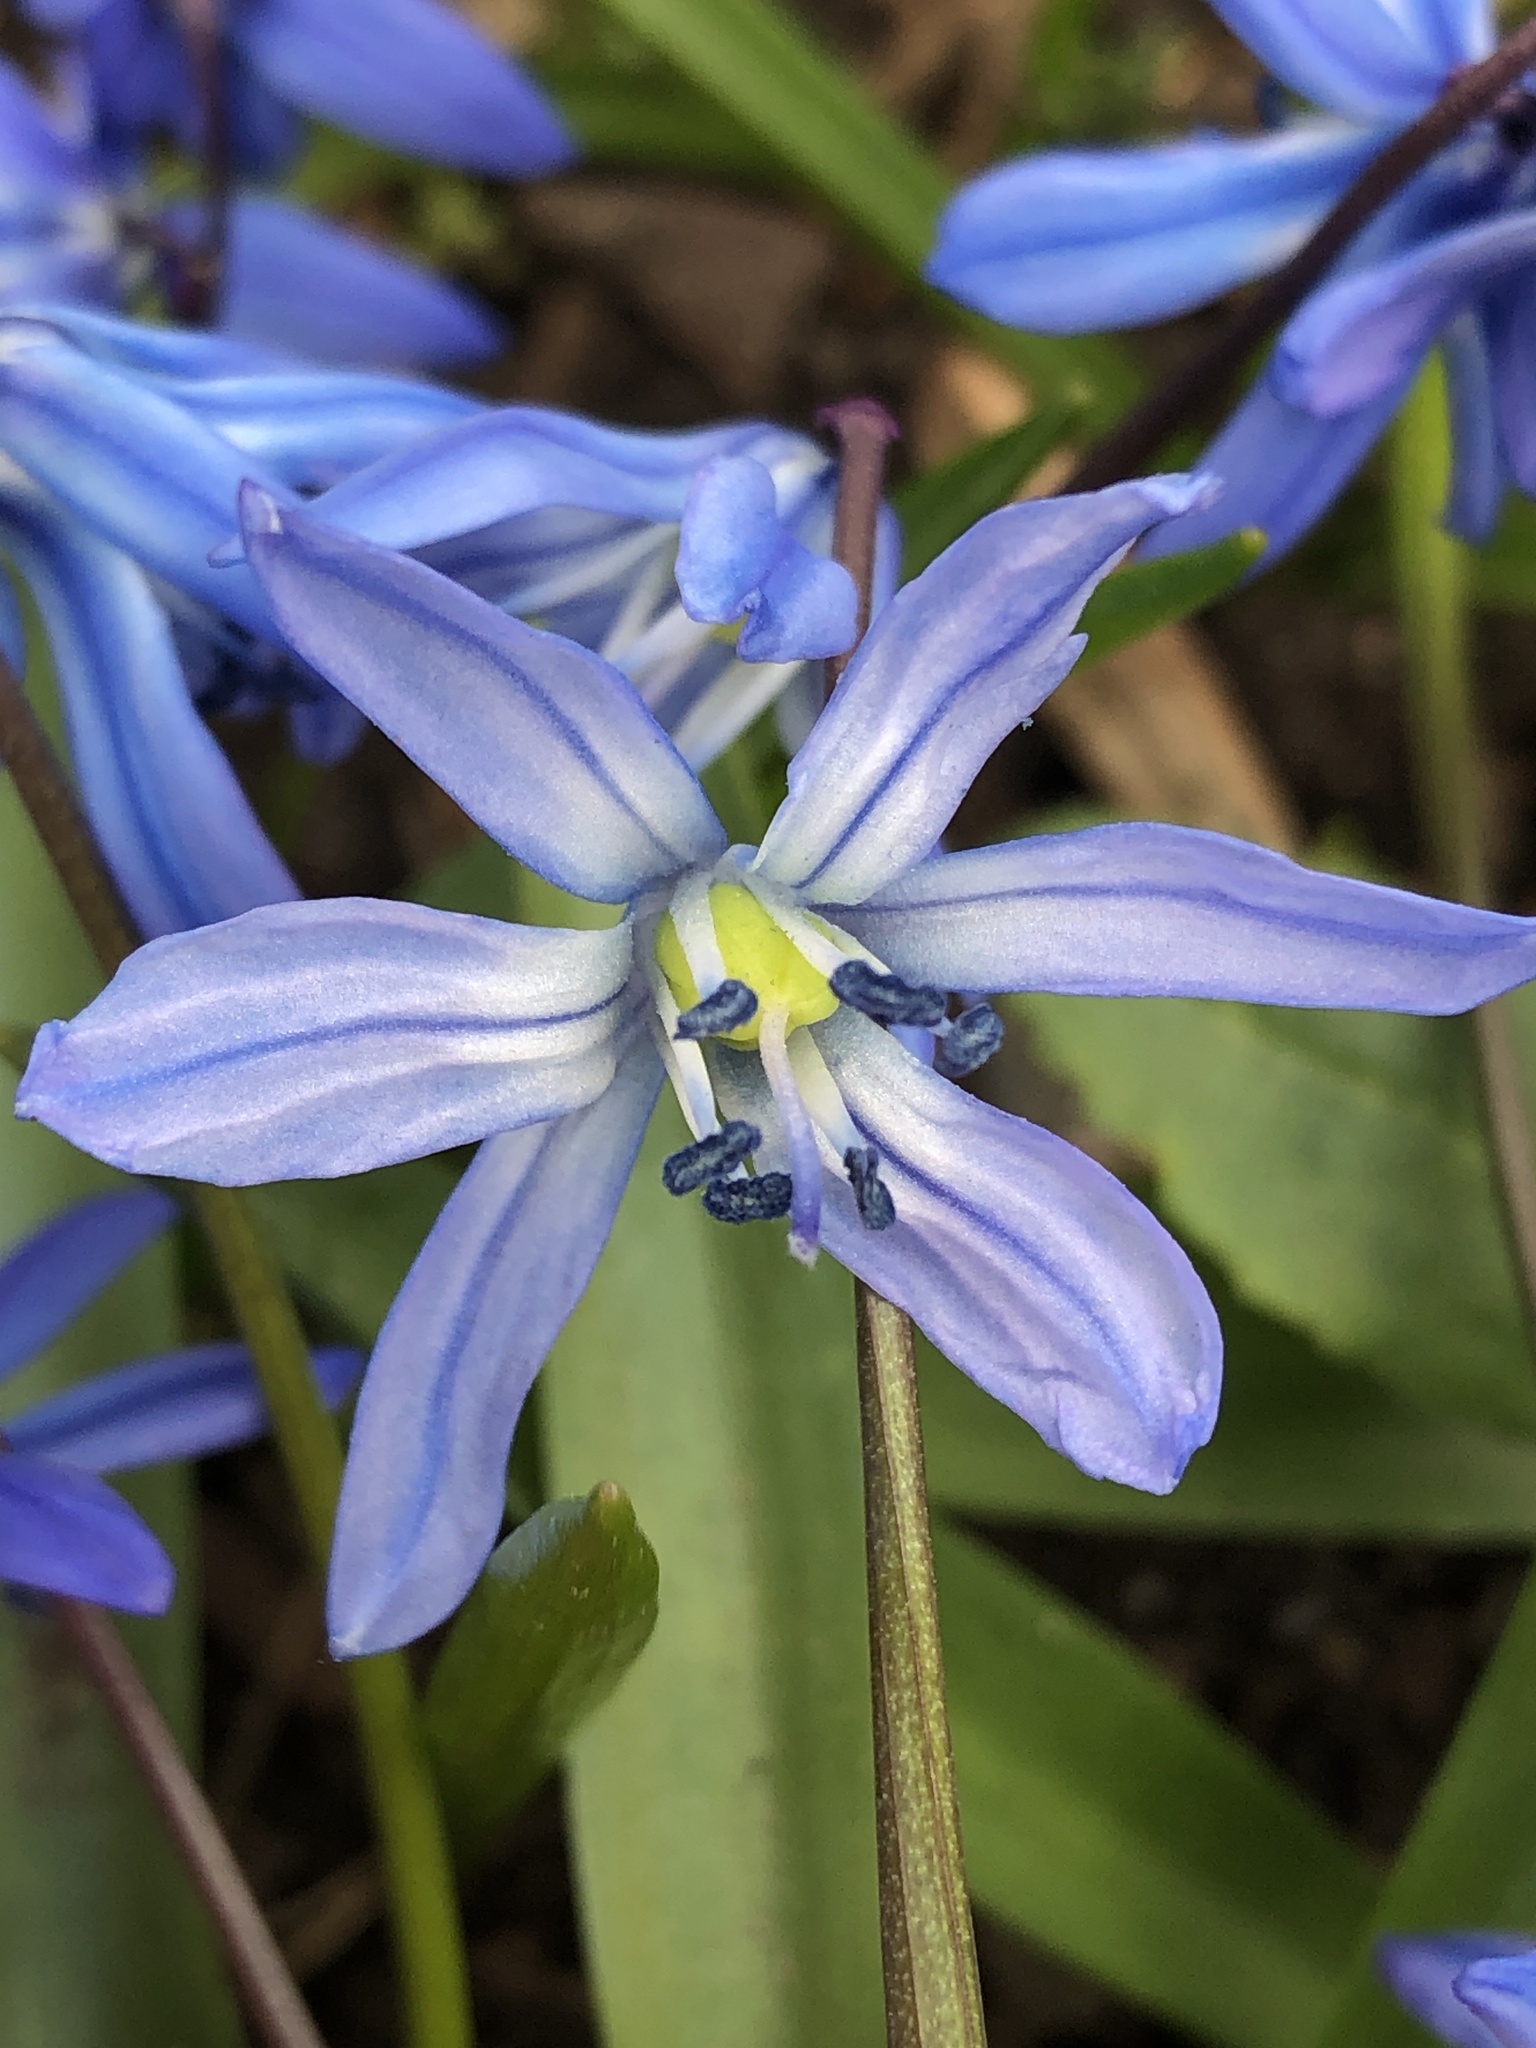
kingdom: Plantae
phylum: Tracheophyta
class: Liliopsida
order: Asparagales
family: Asparagaceae
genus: Scilla
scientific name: Scilla siberica
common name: Siberian squill
